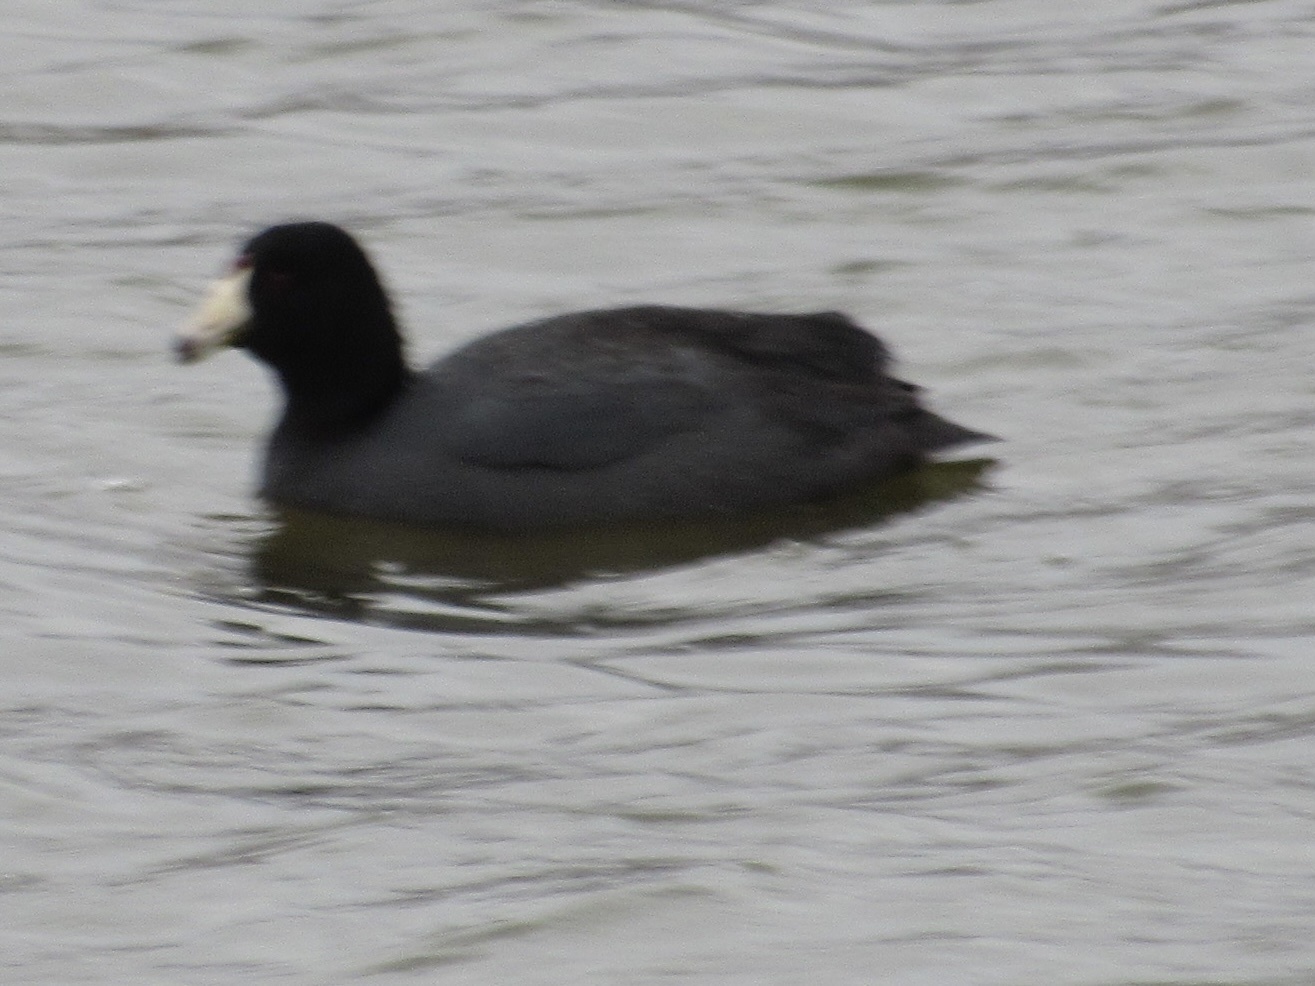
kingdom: Animalia
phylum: Chordata
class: Aves
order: Gruiformes
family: Rallidae
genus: Fulica
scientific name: Fulica americana
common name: American coot
